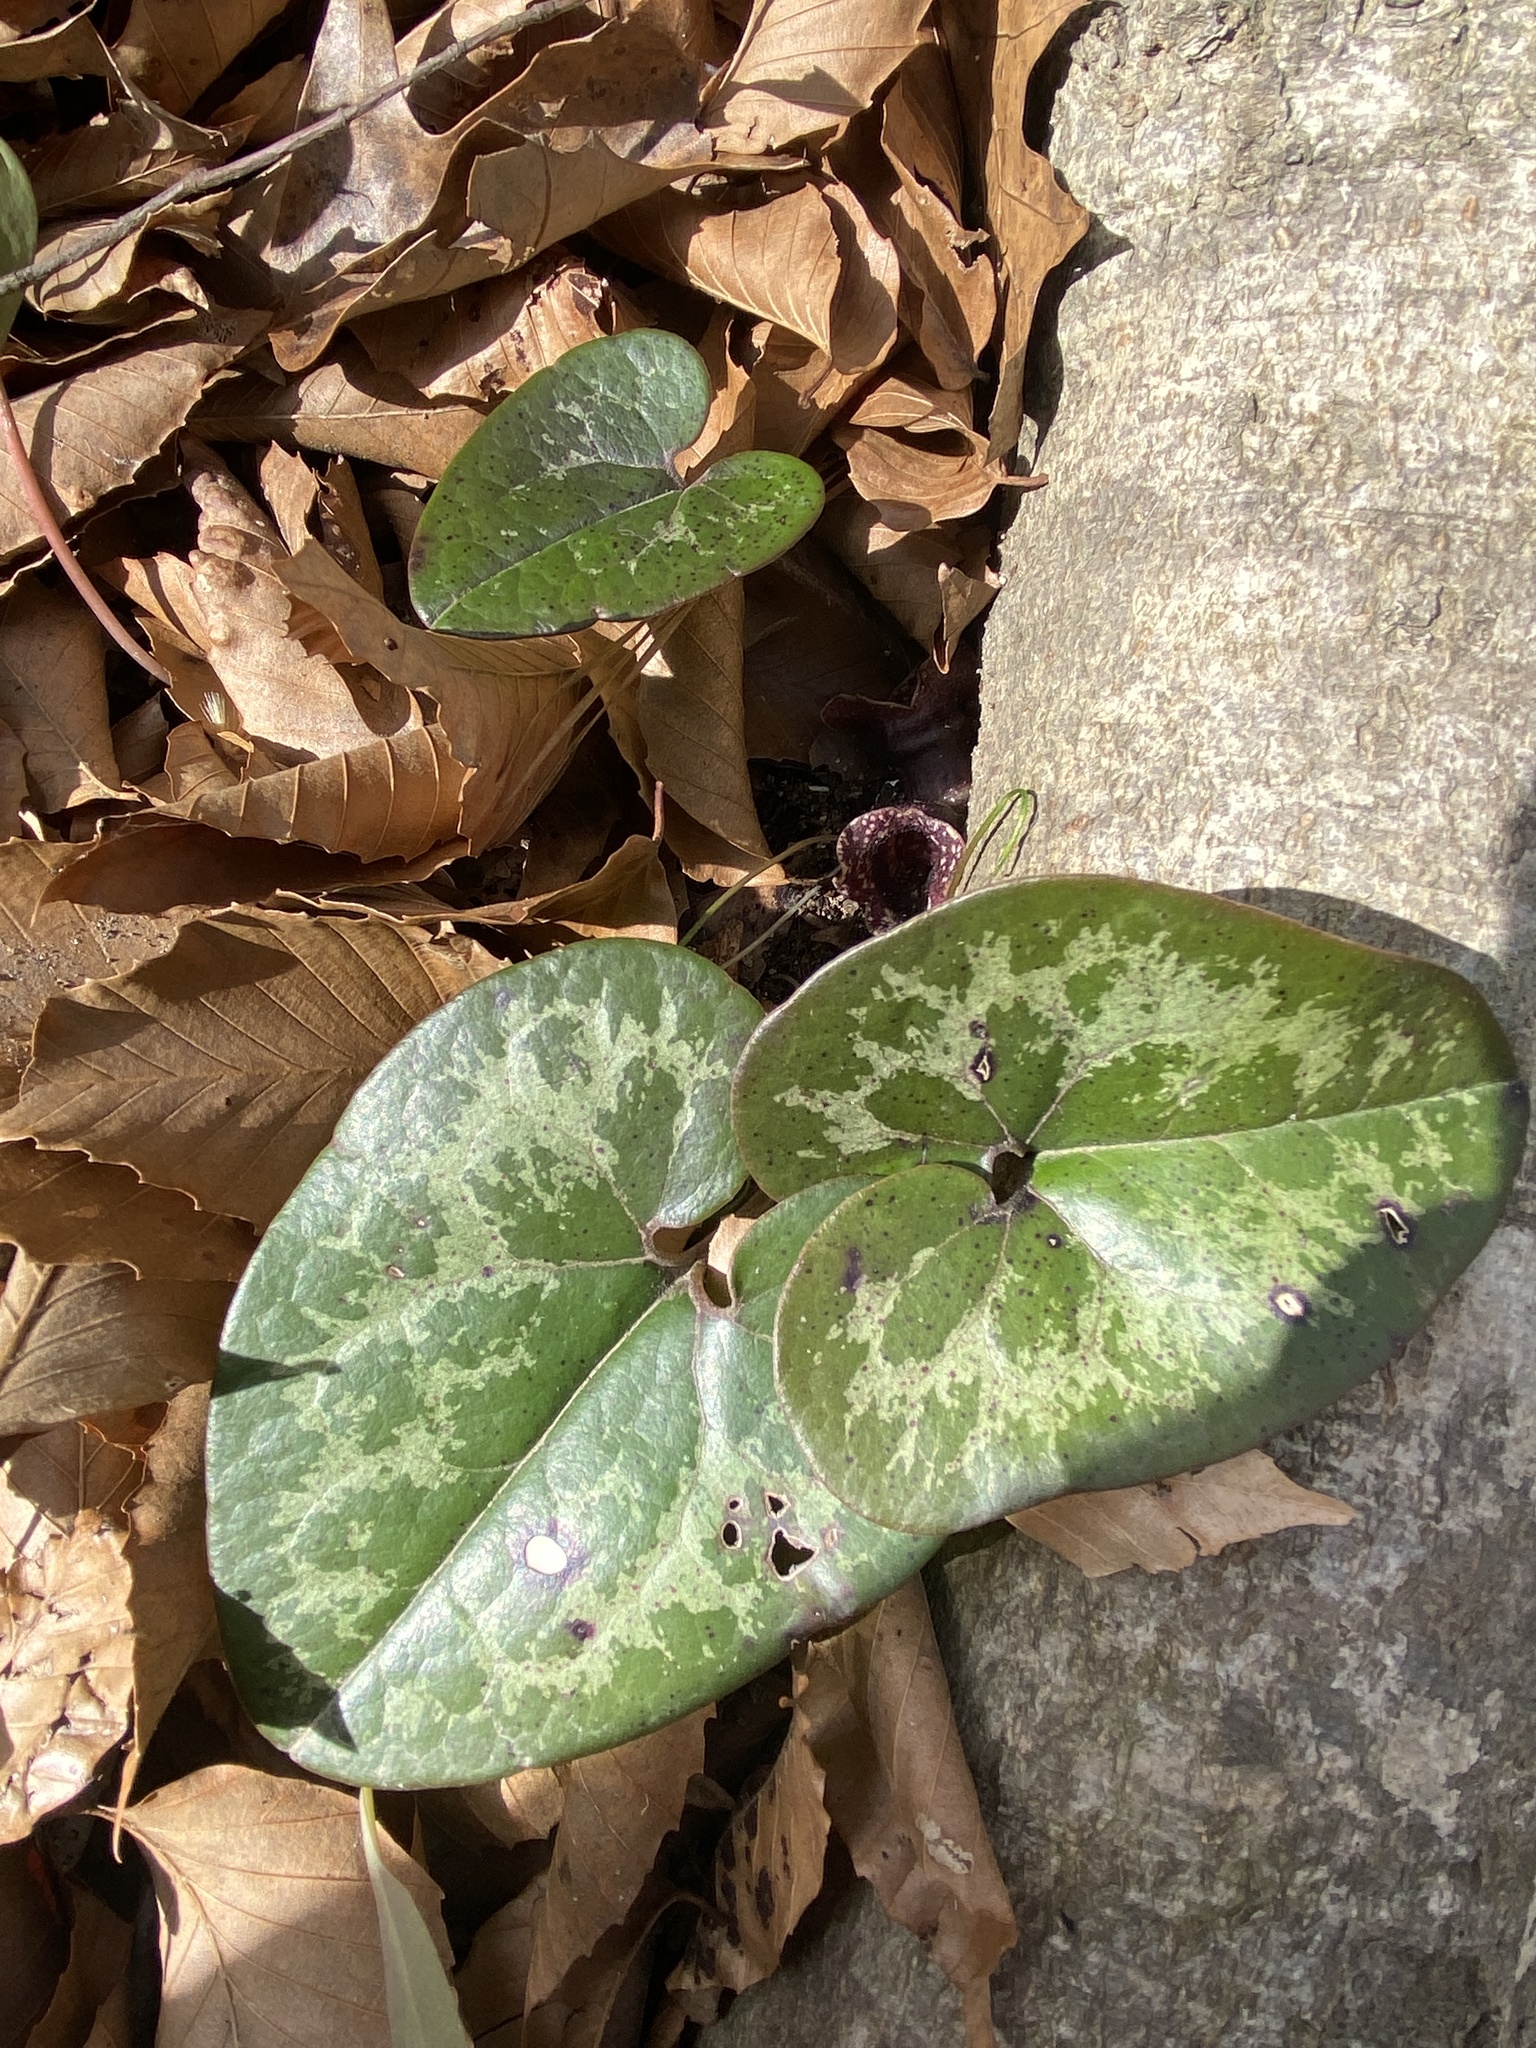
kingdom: Plantae
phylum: Tracheophyta
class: Magnoliopsida
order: Piperales
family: Aristolochiaceae
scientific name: Aristolochiaceae
